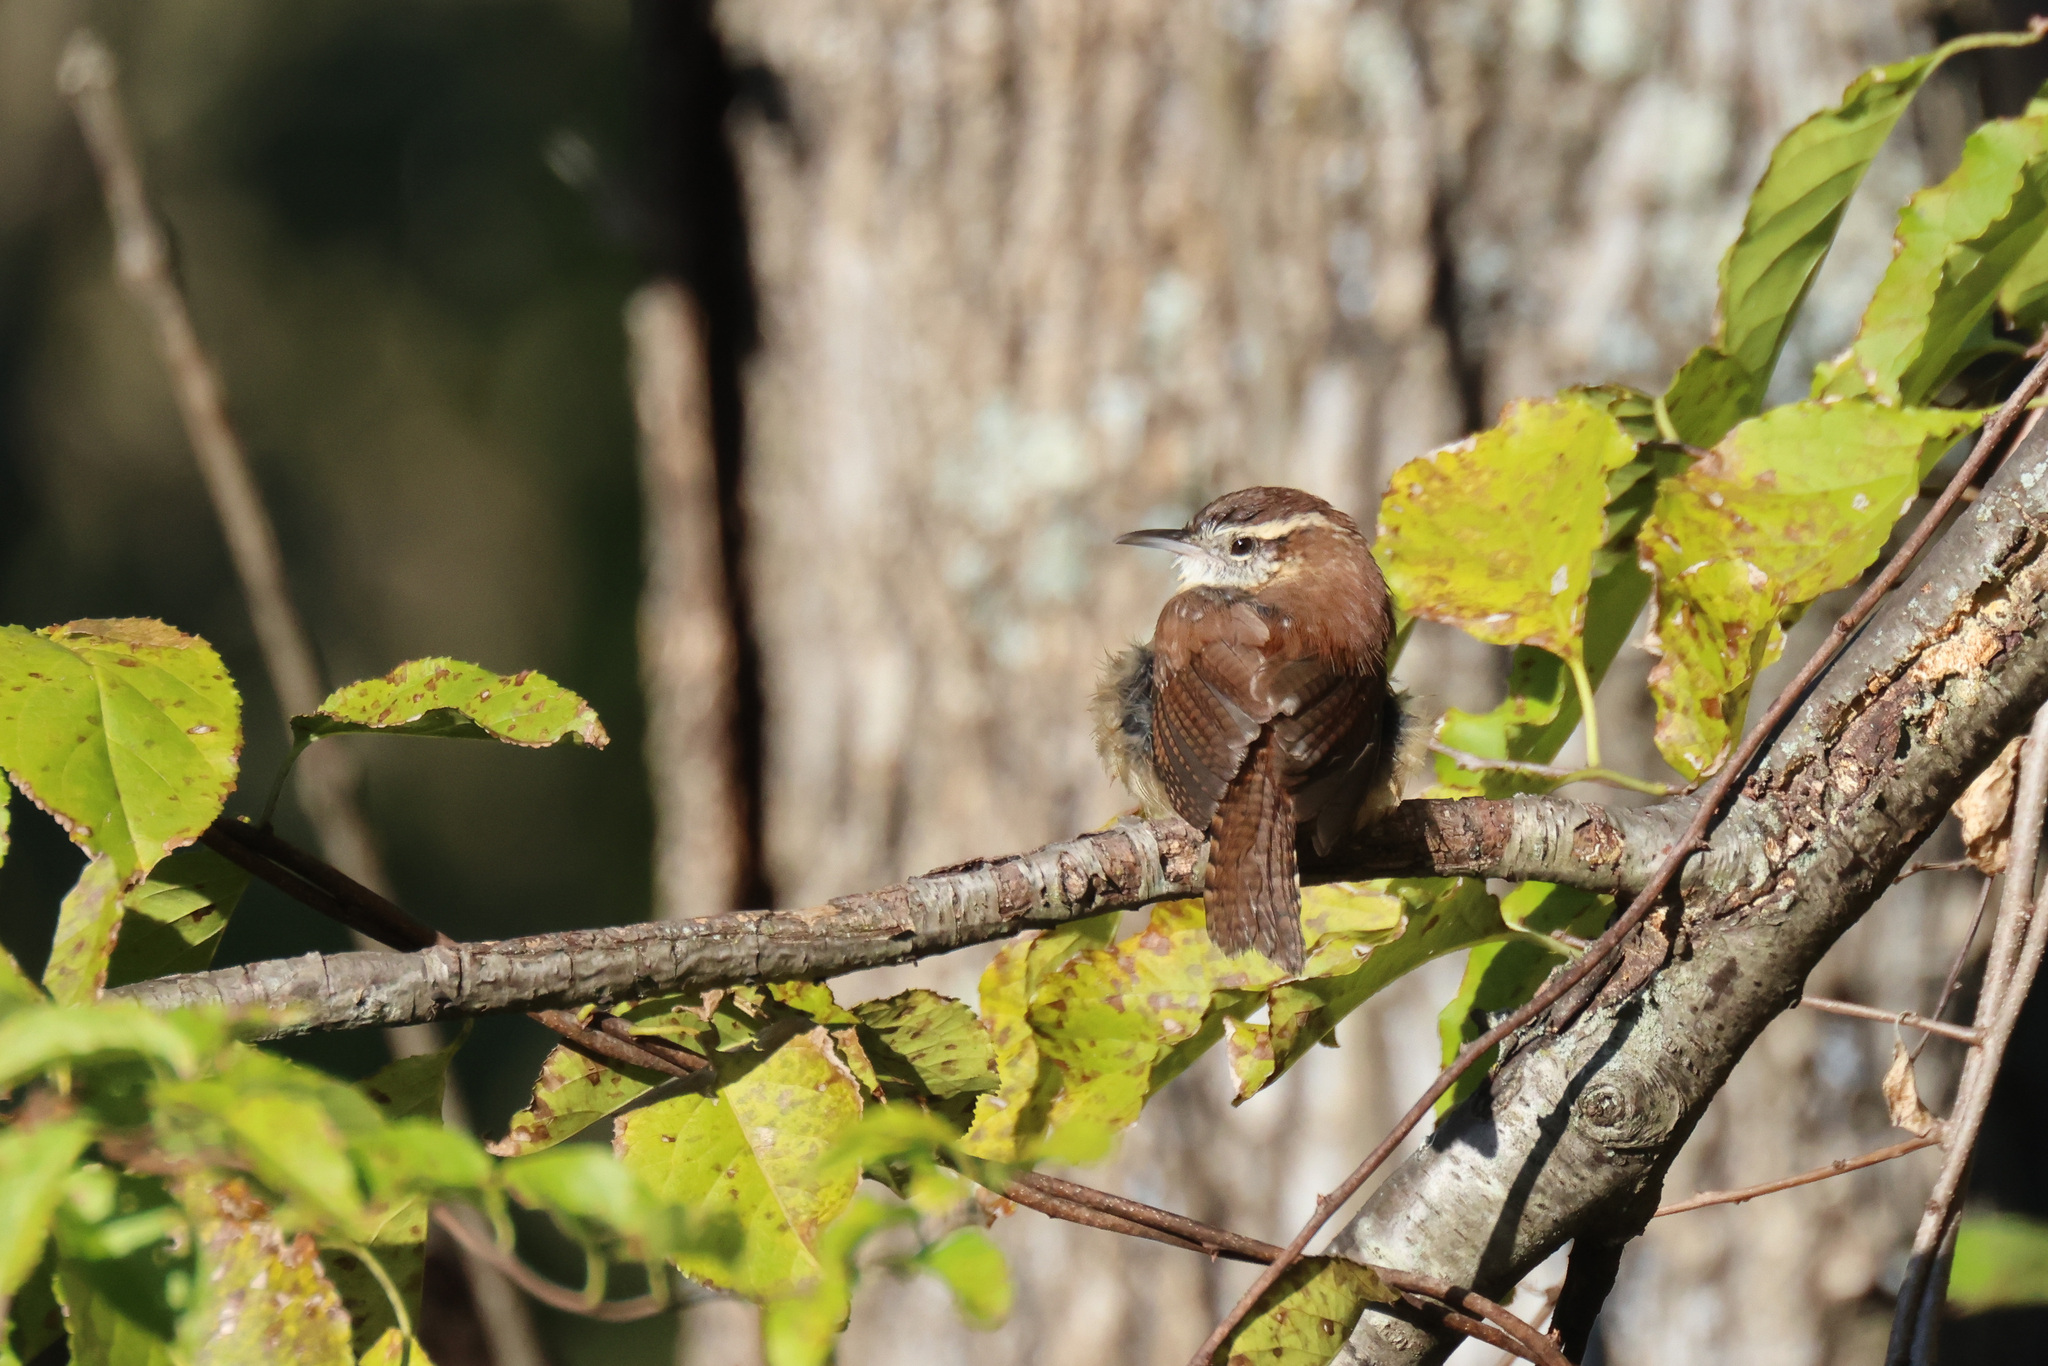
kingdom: Animalia
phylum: Chordata
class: Aves
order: Passeriformes
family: Troglodytidae
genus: Thryothorus
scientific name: Thryothorus ludovicianus
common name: Carolina wren
